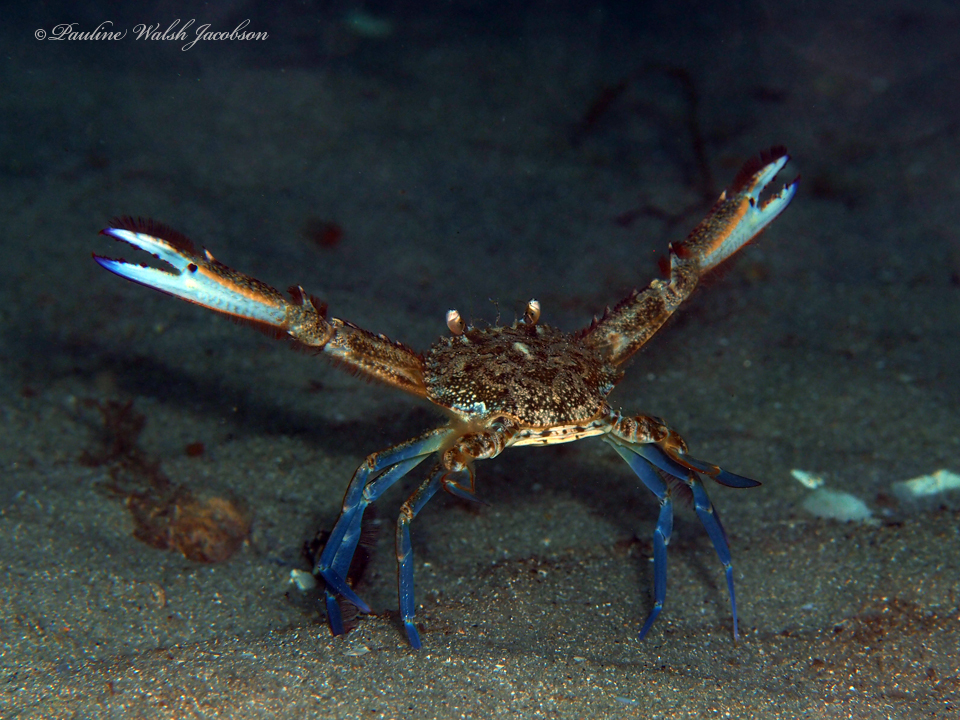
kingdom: Animalia
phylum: Arthropoda
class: Malacostraca
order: Decapoda
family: Portunidae
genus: Achelous
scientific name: Achelous depressifrons
